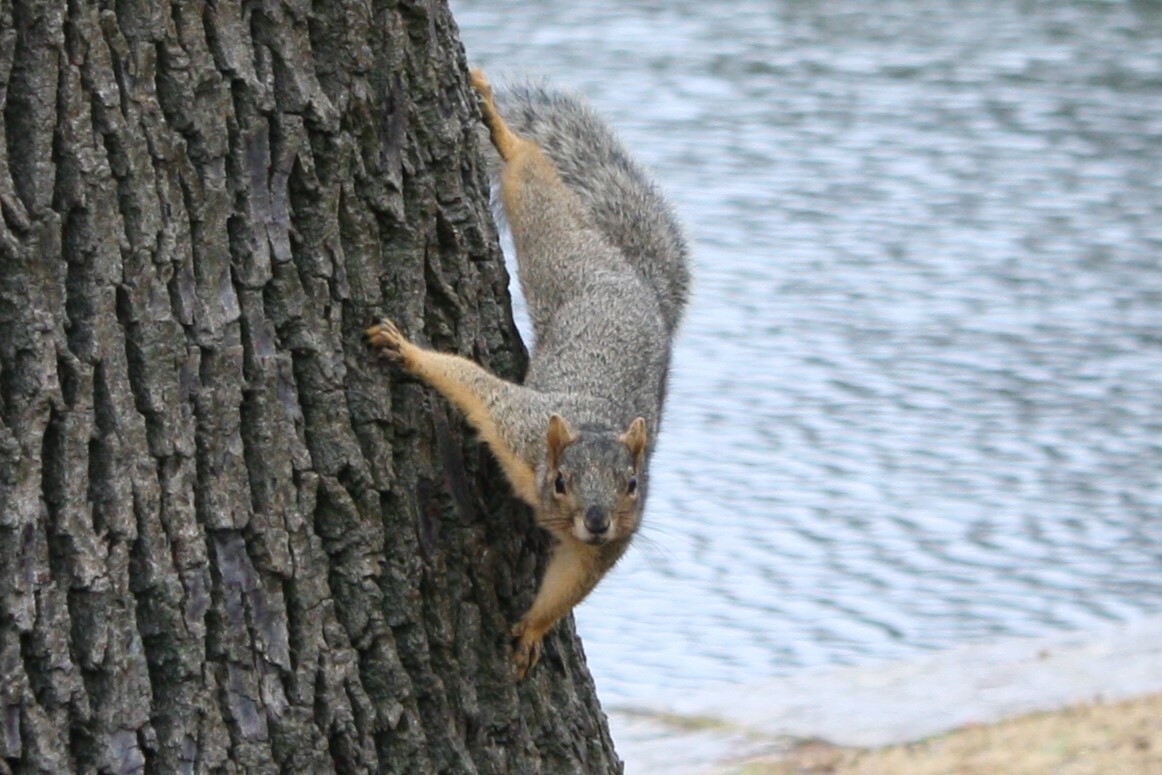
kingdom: Animalia
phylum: Chordata
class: Mammalia
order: Rodentia
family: Sciuridae
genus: Sciurus
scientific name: Sciurus niger
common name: Fox squirrel
